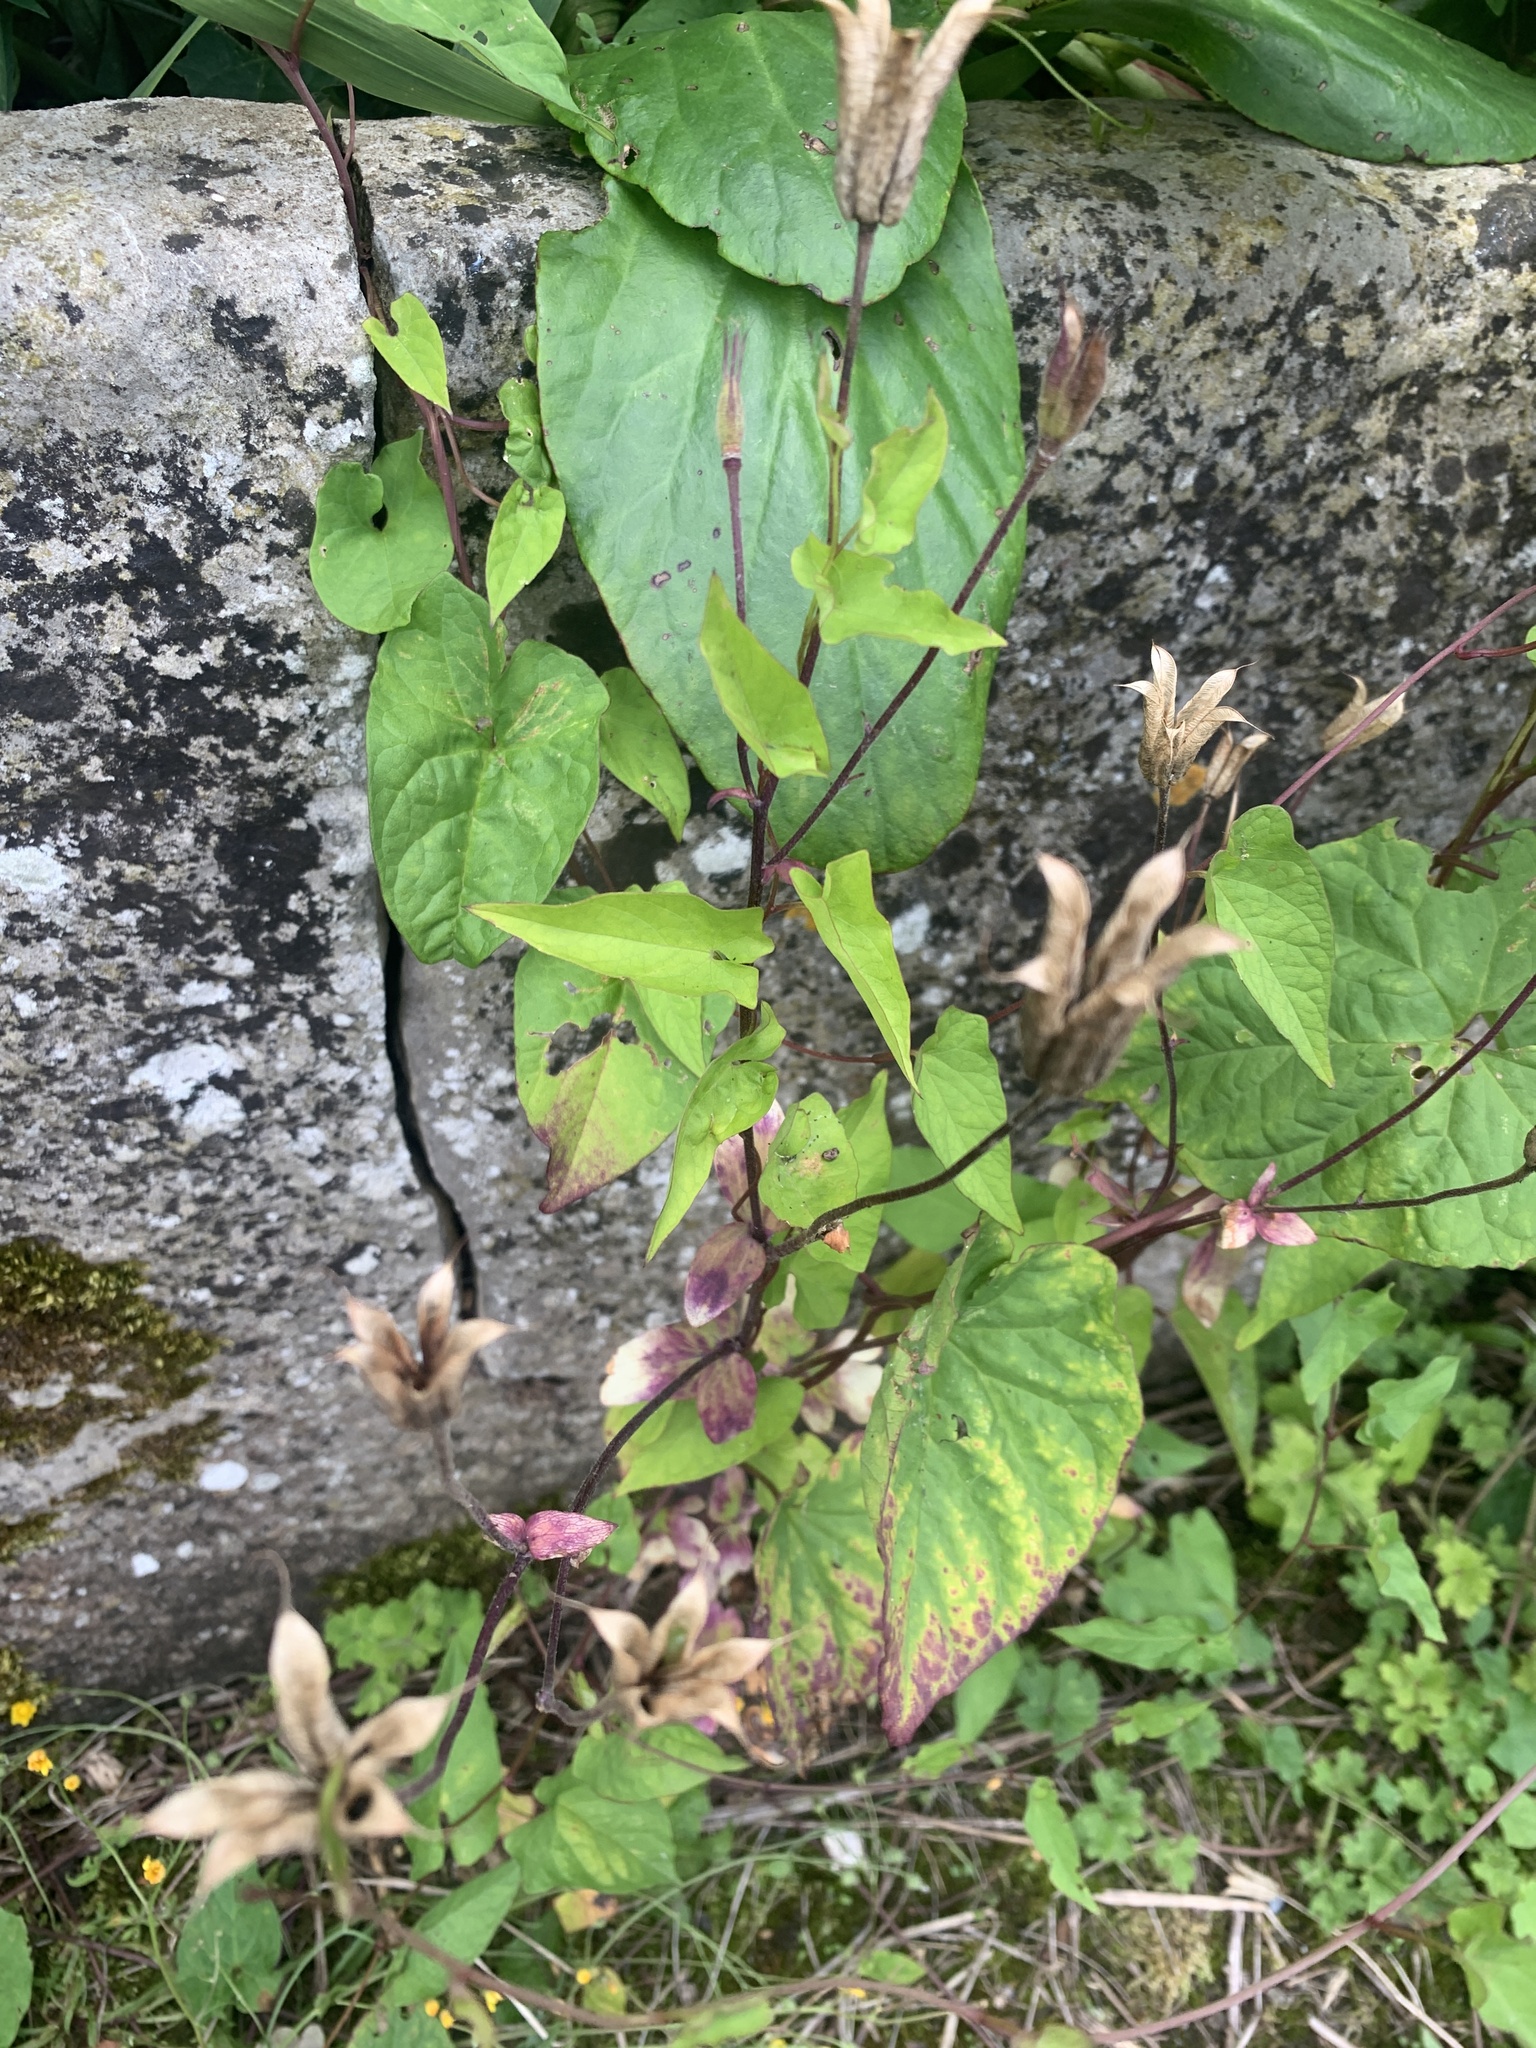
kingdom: Plantae
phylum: Tracheophyta
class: Magnoliopsida
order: Solanales
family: Convolvulaceae
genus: Calystegia
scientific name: Calystegia silvatica
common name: Large bindweed
